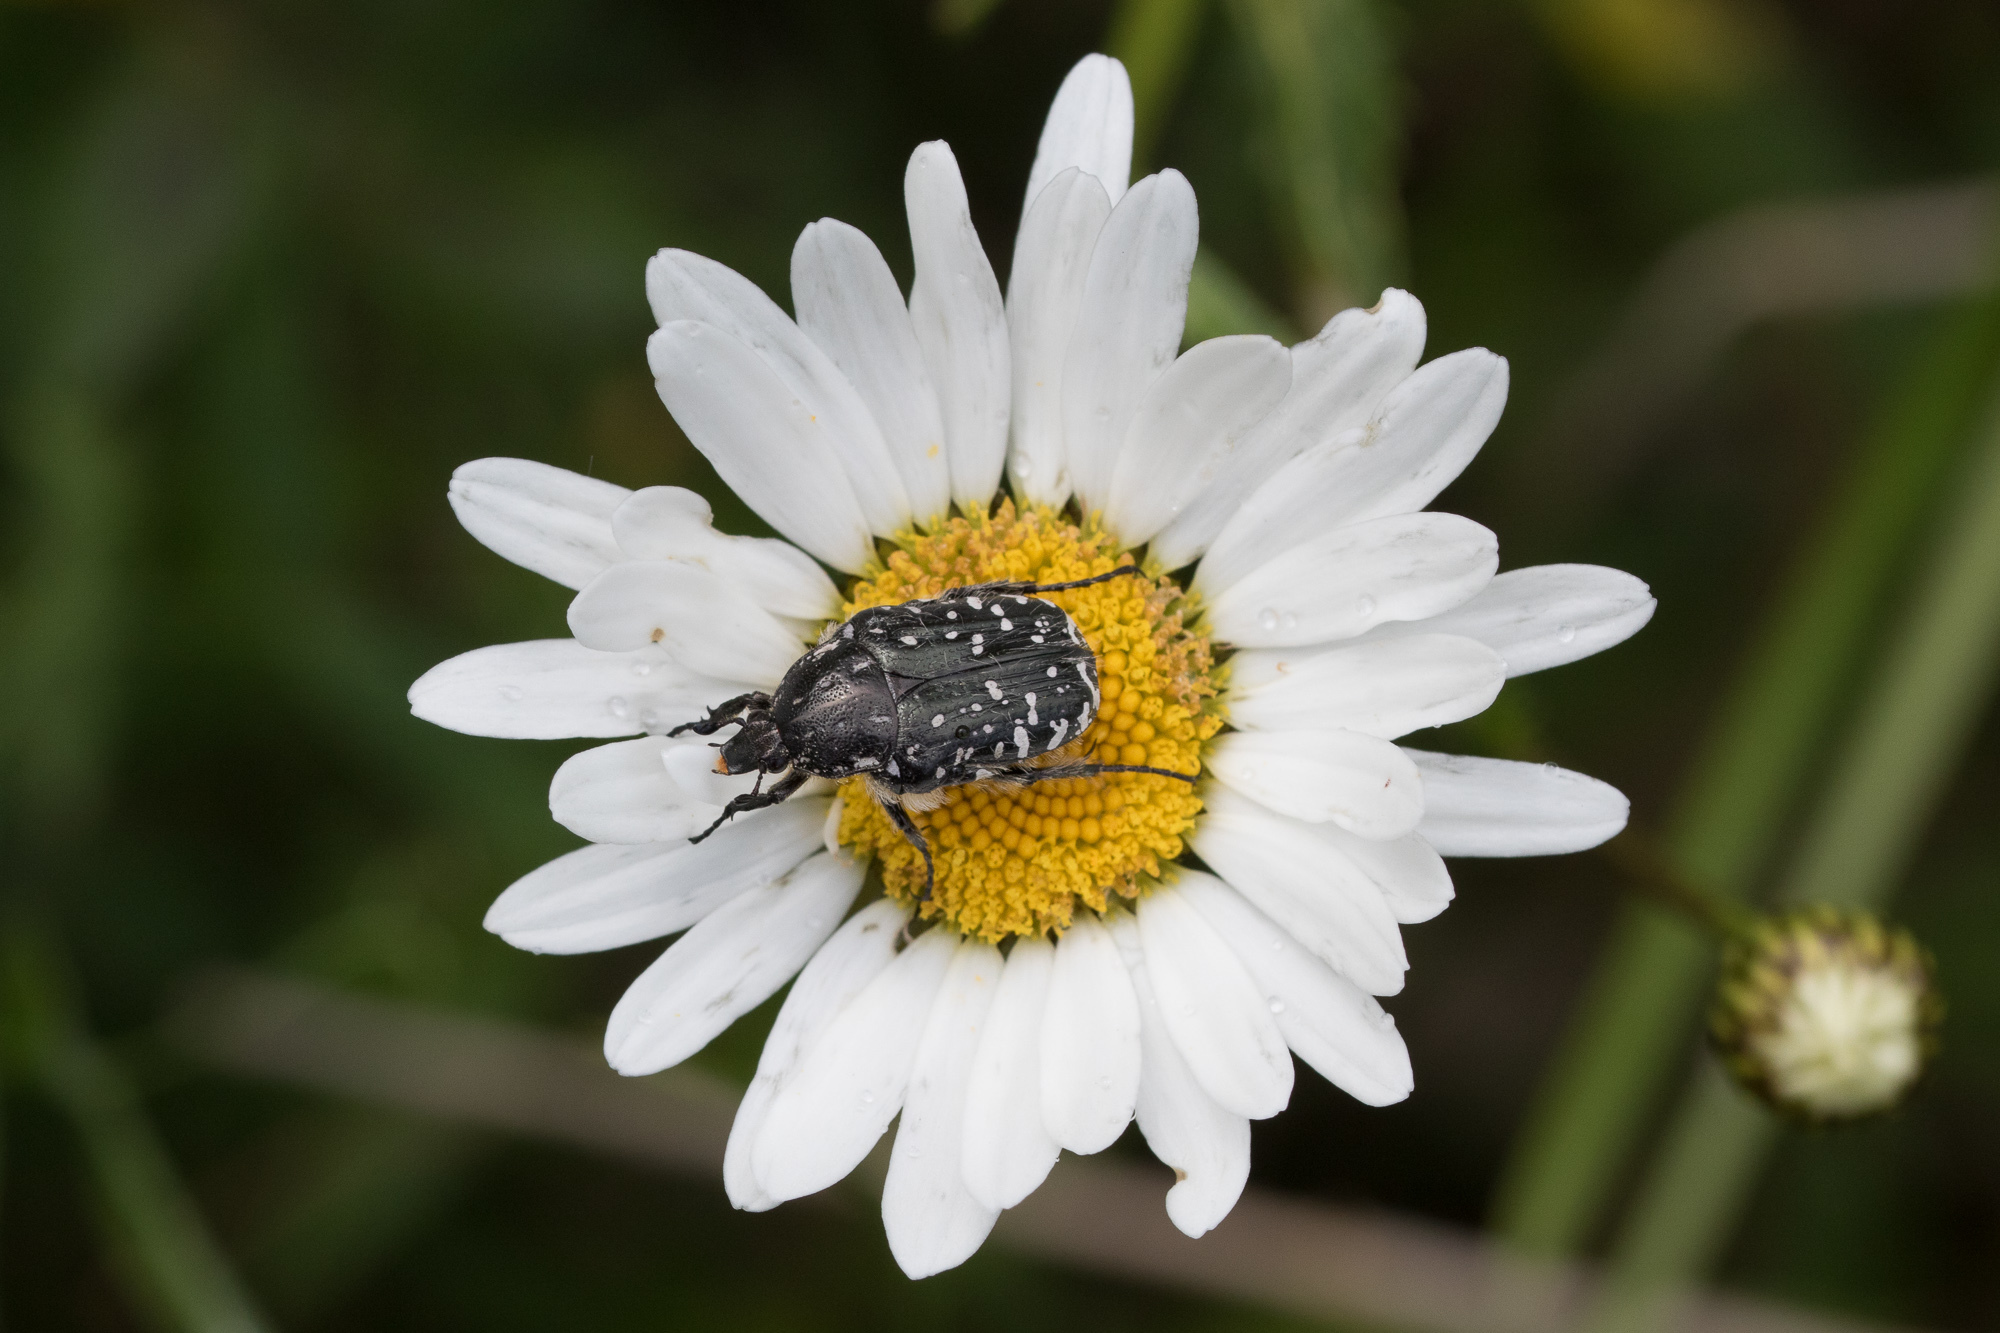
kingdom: Animalia
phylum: Arthropoda
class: Insecta
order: Coleoptera
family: Scarabaeidae
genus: Oxythyrea
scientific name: Oxythyrea funesta
